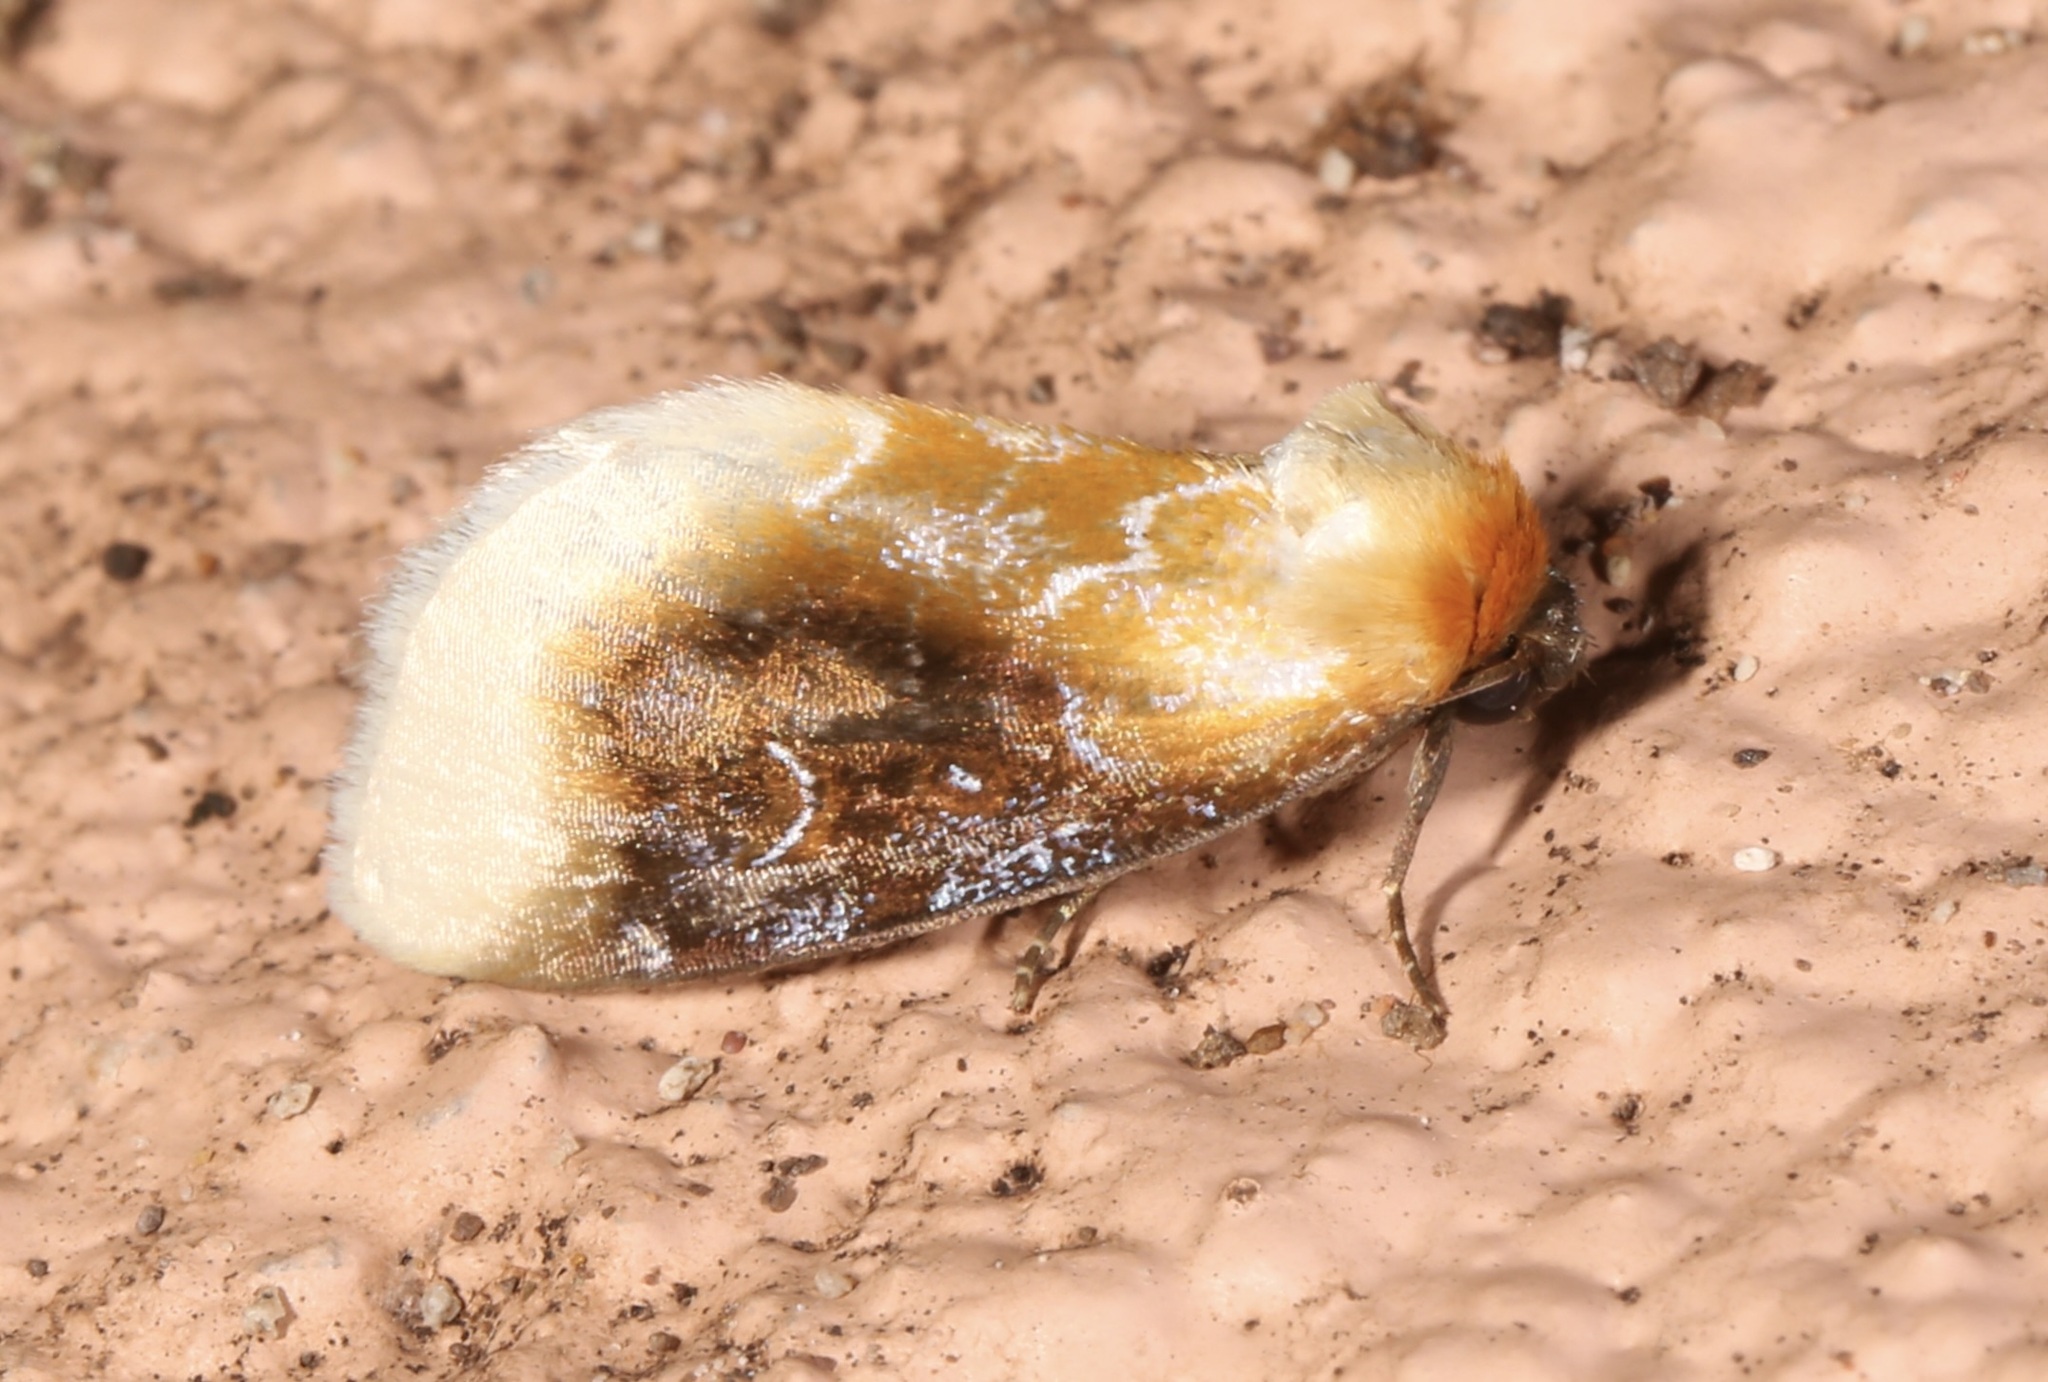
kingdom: Animalia
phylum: Arthropoda
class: Insecta
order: Lepidoptera
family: Noctuidae
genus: Chrysoecia
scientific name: Chrysoecia scira
